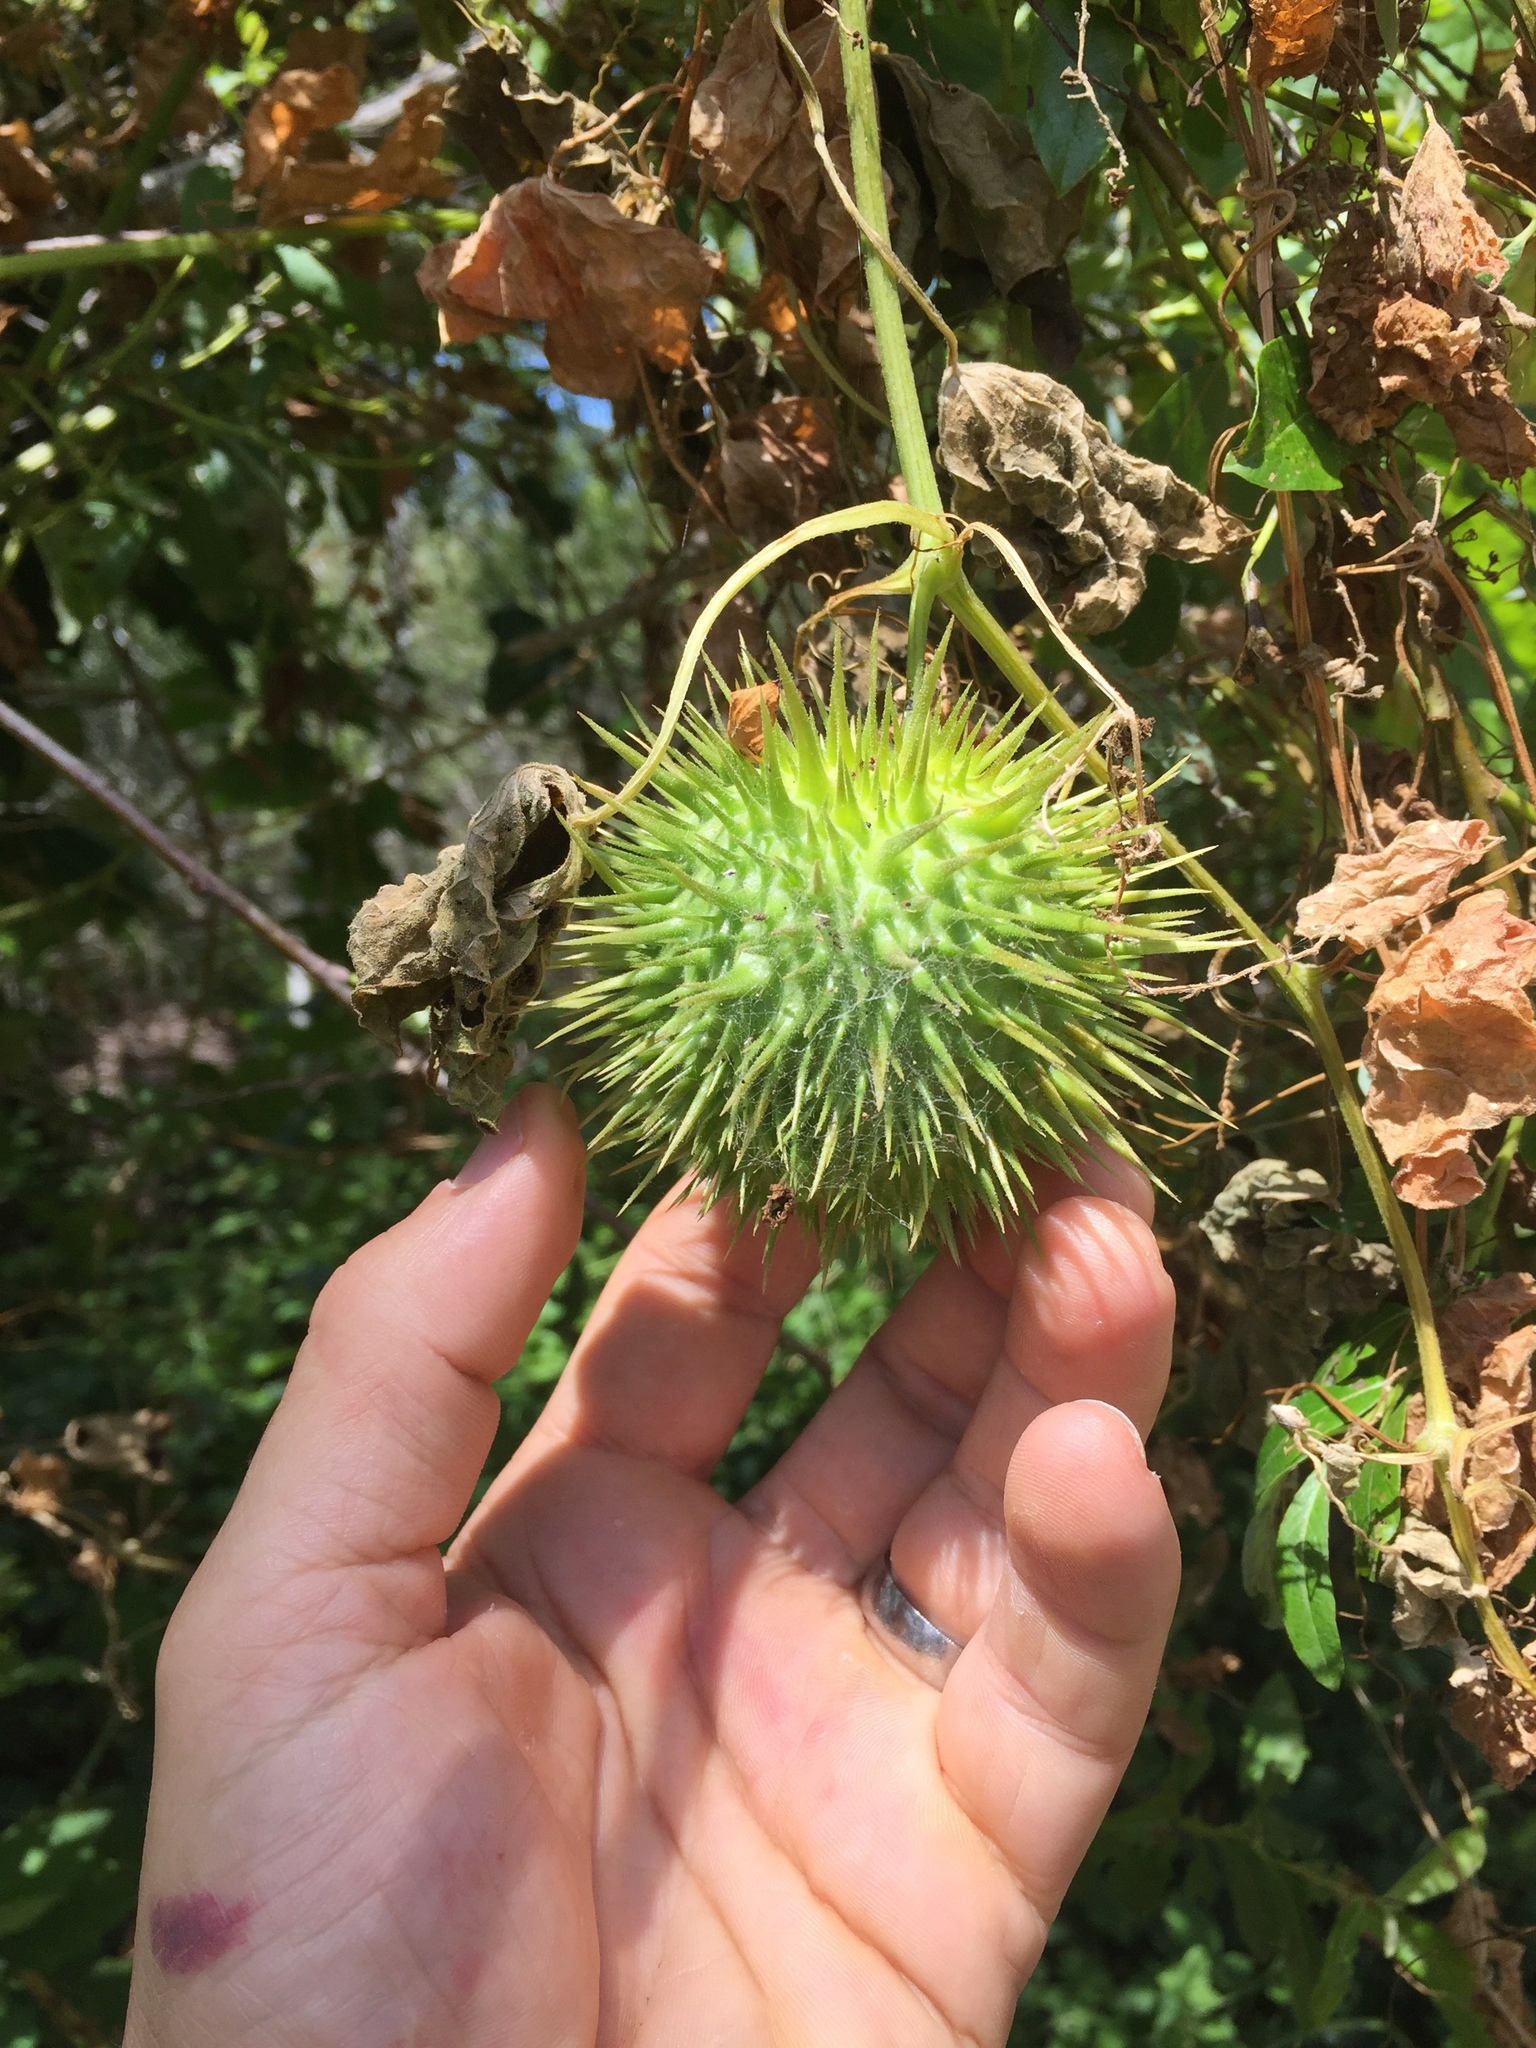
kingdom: Plantae
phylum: Tracheophyta
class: Magnoliopsida
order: Cucurbitales
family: Cucurbitaceae
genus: Marah
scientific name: Marah fabacea
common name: California manroot
